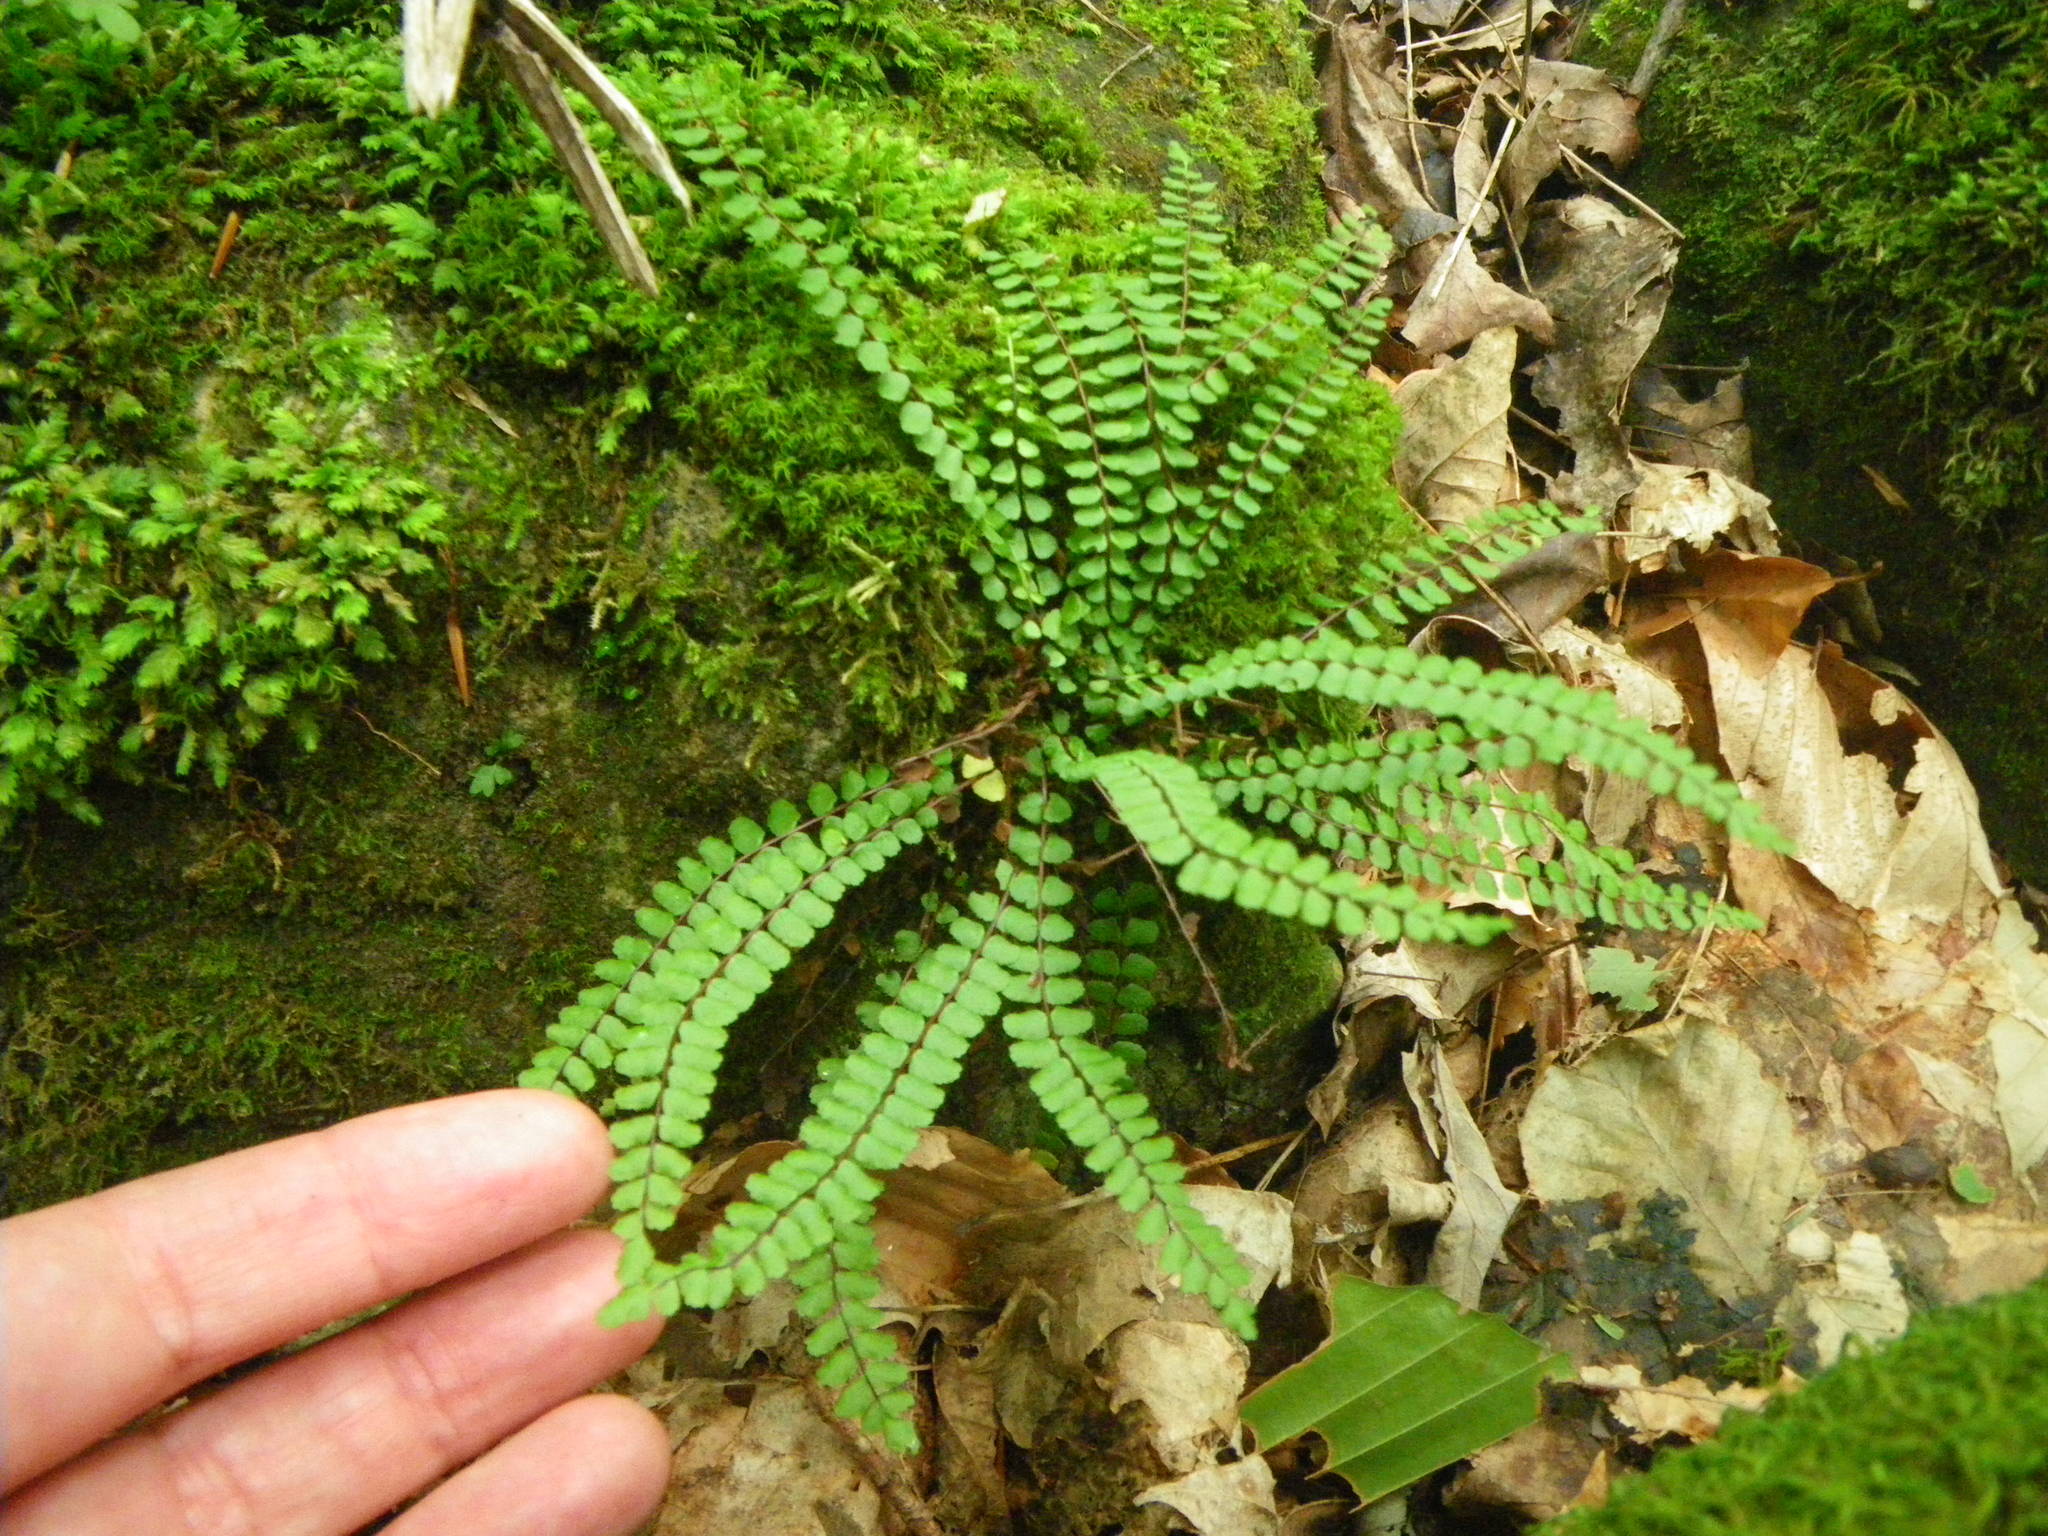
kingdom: Plantae
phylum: Tracheophyta
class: Polypodiopsida
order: Polypodiales
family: Aspleniaceae
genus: Asplenium
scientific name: Asplenium trichomanes
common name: Maidenhair spleenwort
